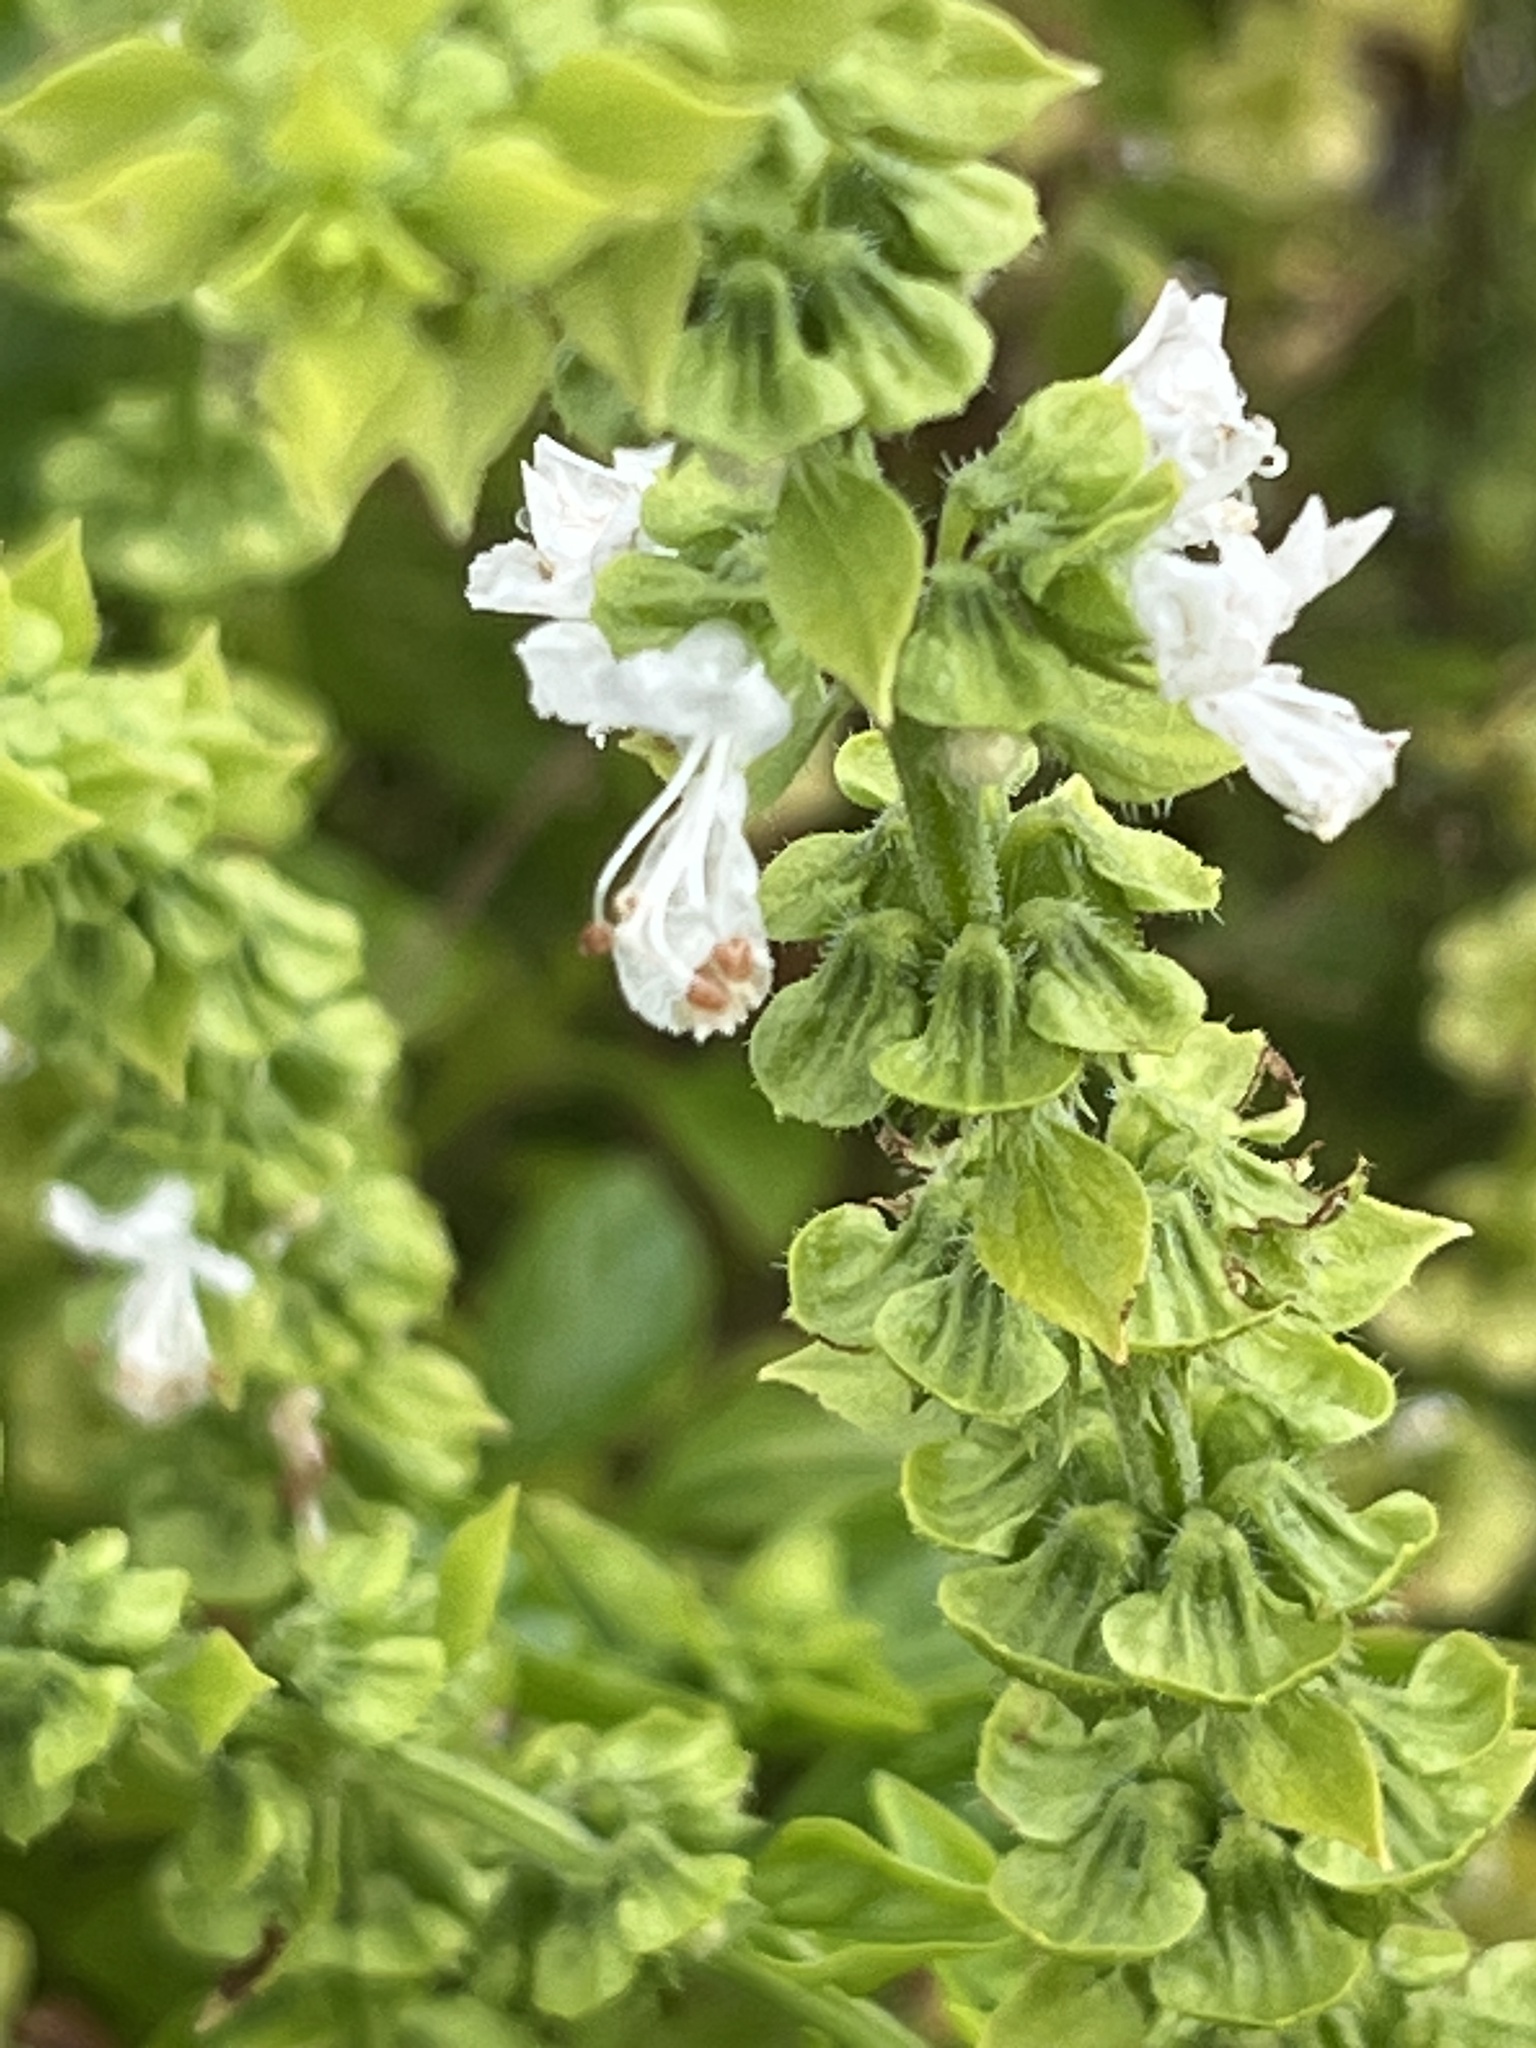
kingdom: Plantae
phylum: Tracheophyta
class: Magnoliopsida
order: Lamiales
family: Lamiaceae
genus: Ocimum
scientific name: Ocimum basilicum
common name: Sweet basil
